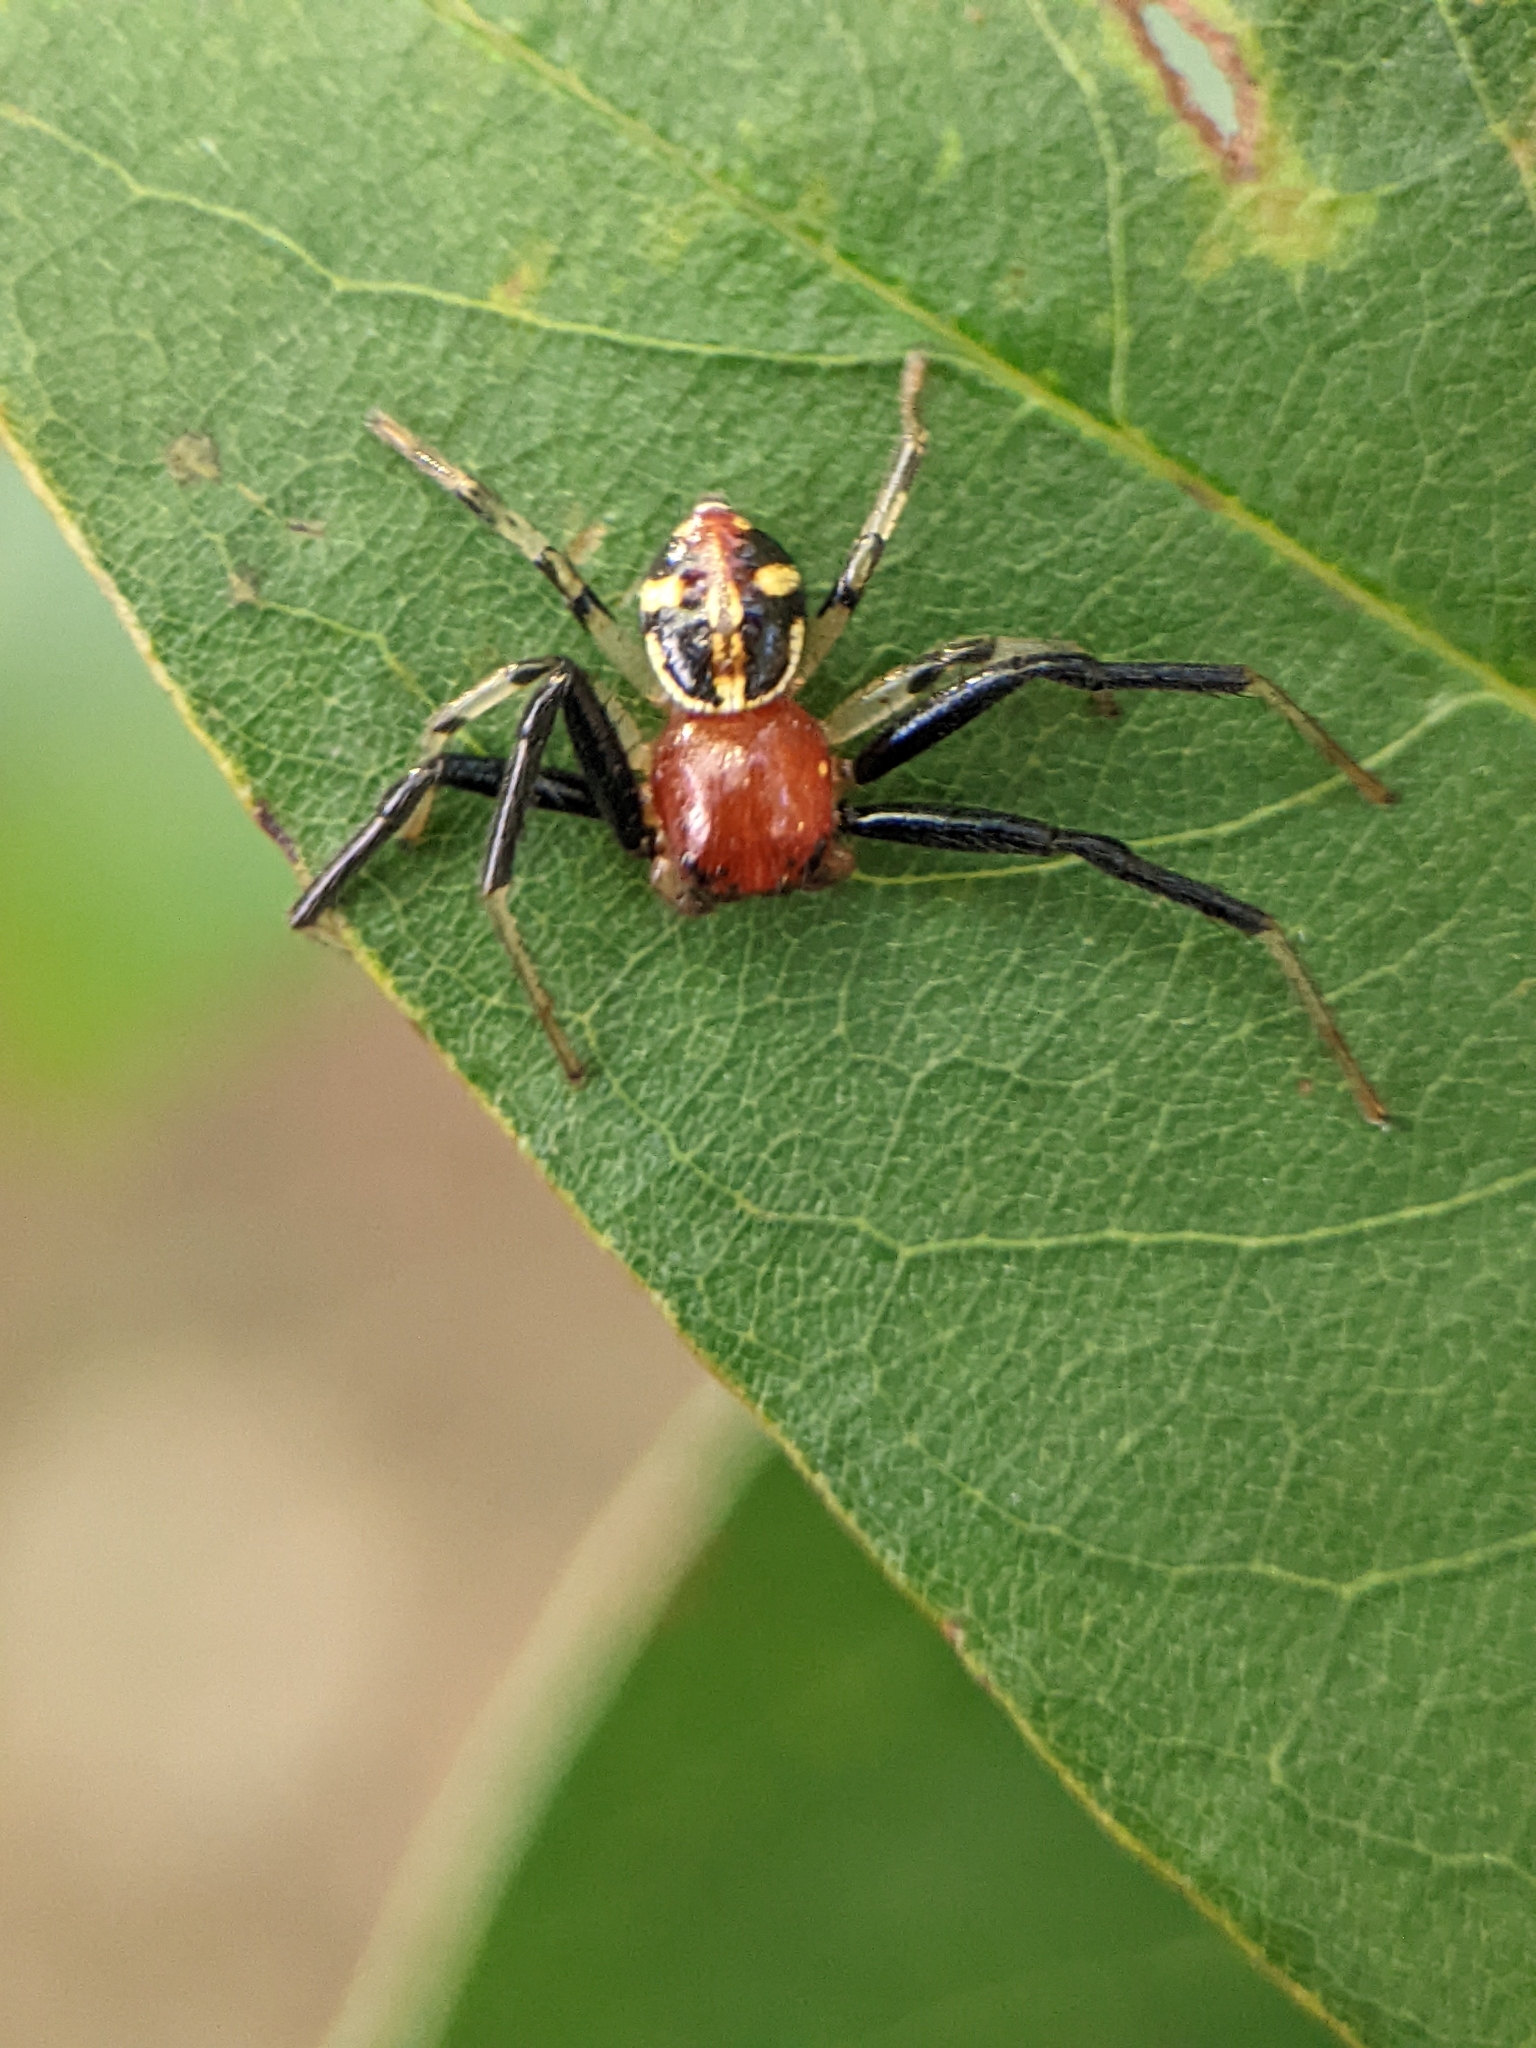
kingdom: Animalia
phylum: Arthropoda
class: Arachnida
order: Araneae
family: Thomisidae
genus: Camaricus
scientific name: Camaricus maugei
